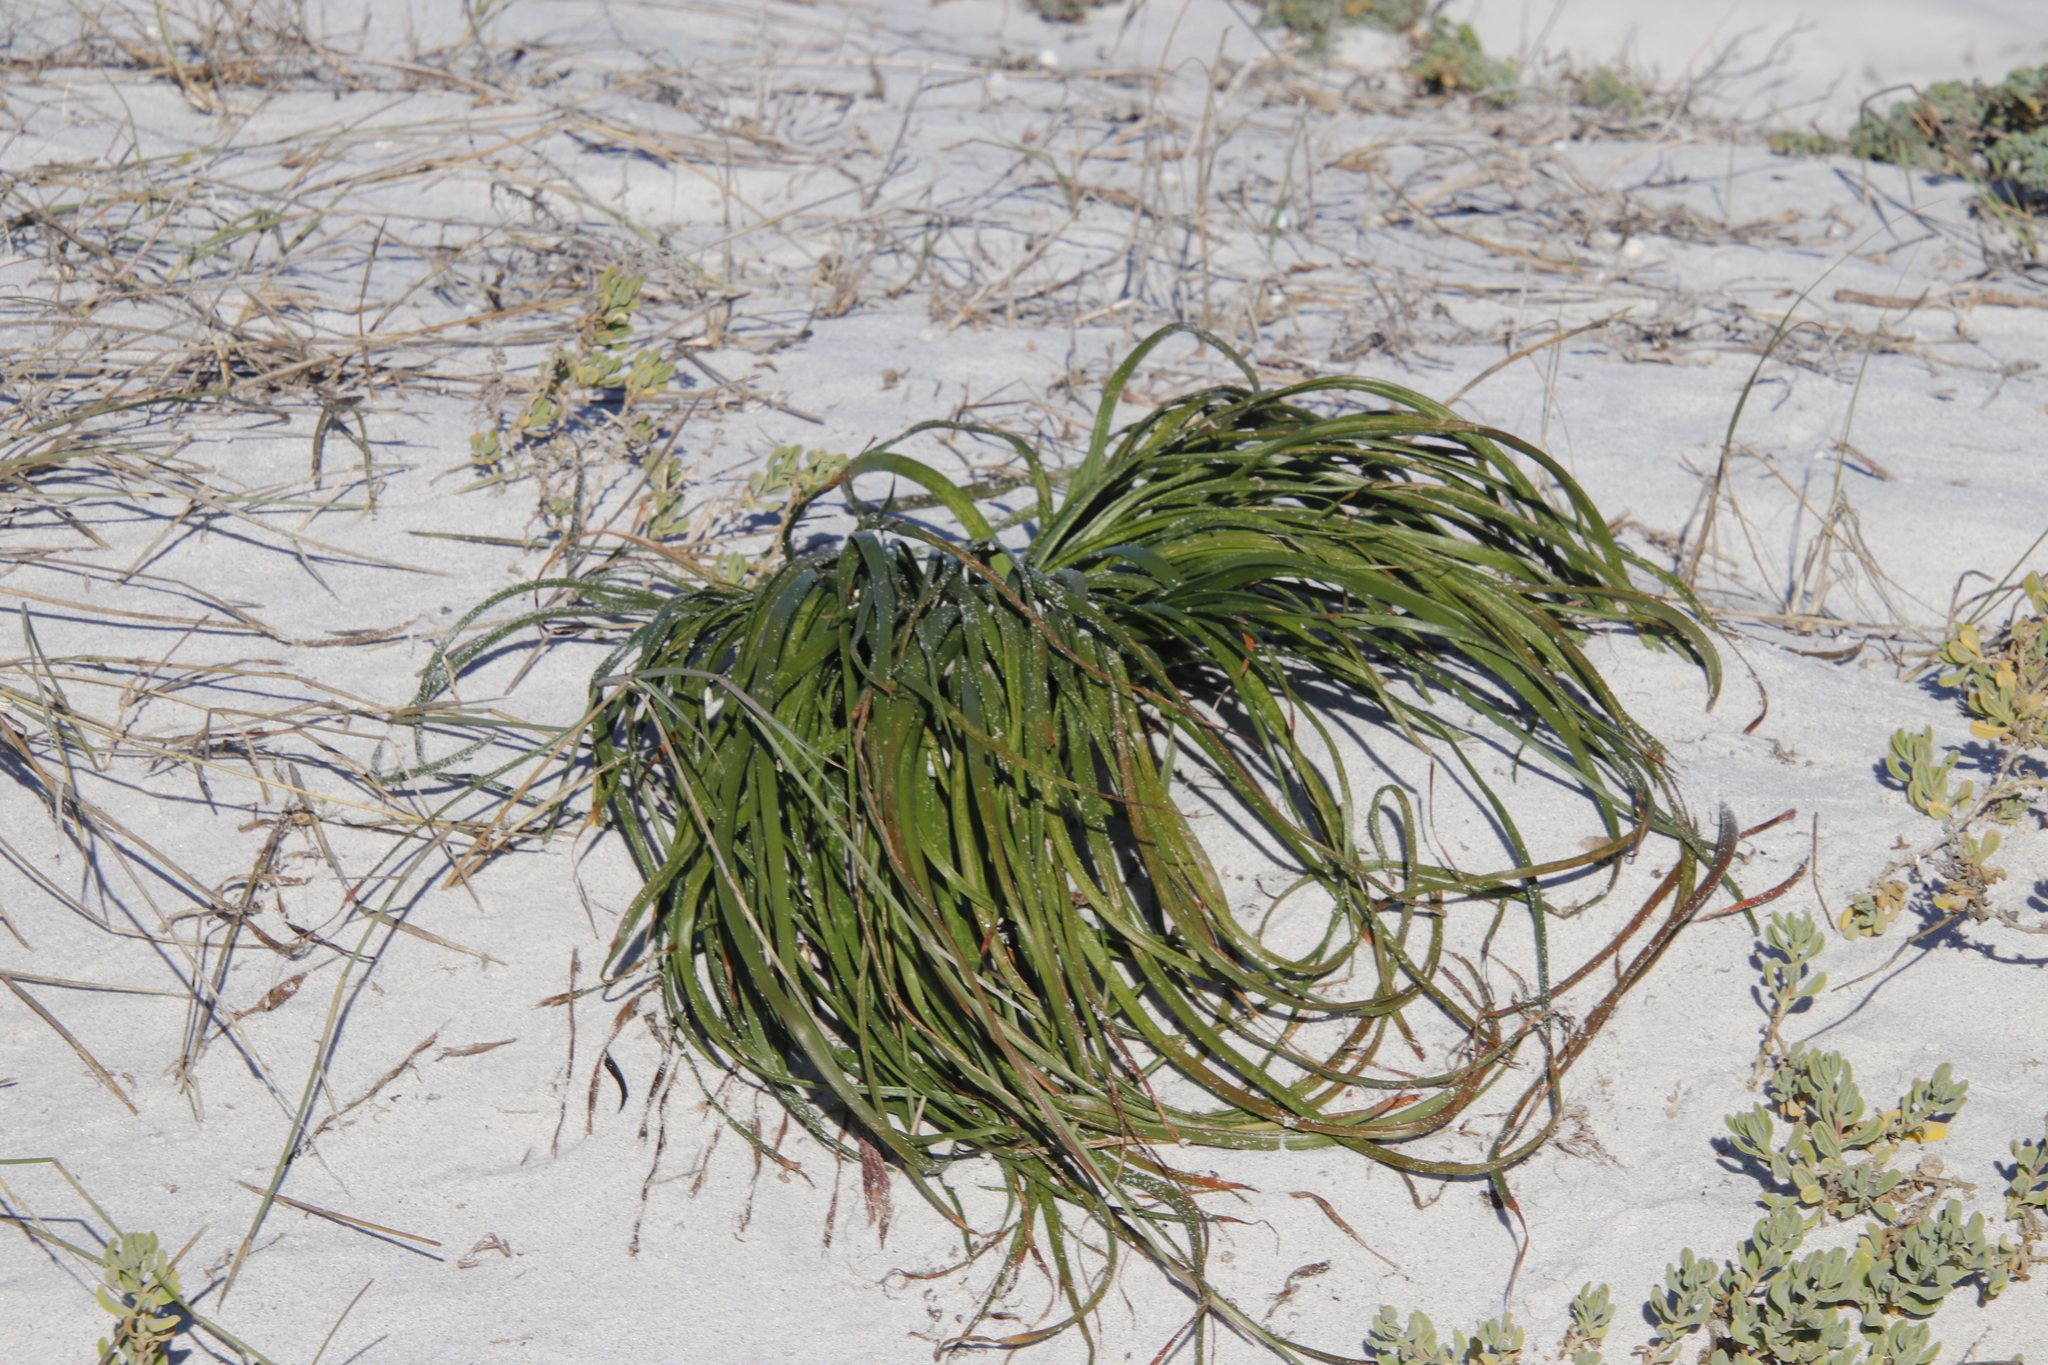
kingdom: Plantae
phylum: Tracheophyta
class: Liliopsida
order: Asparagales
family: Asphodelaceae
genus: Trachyandra
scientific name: Trachyandra divaricata
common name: Dune onionweed
